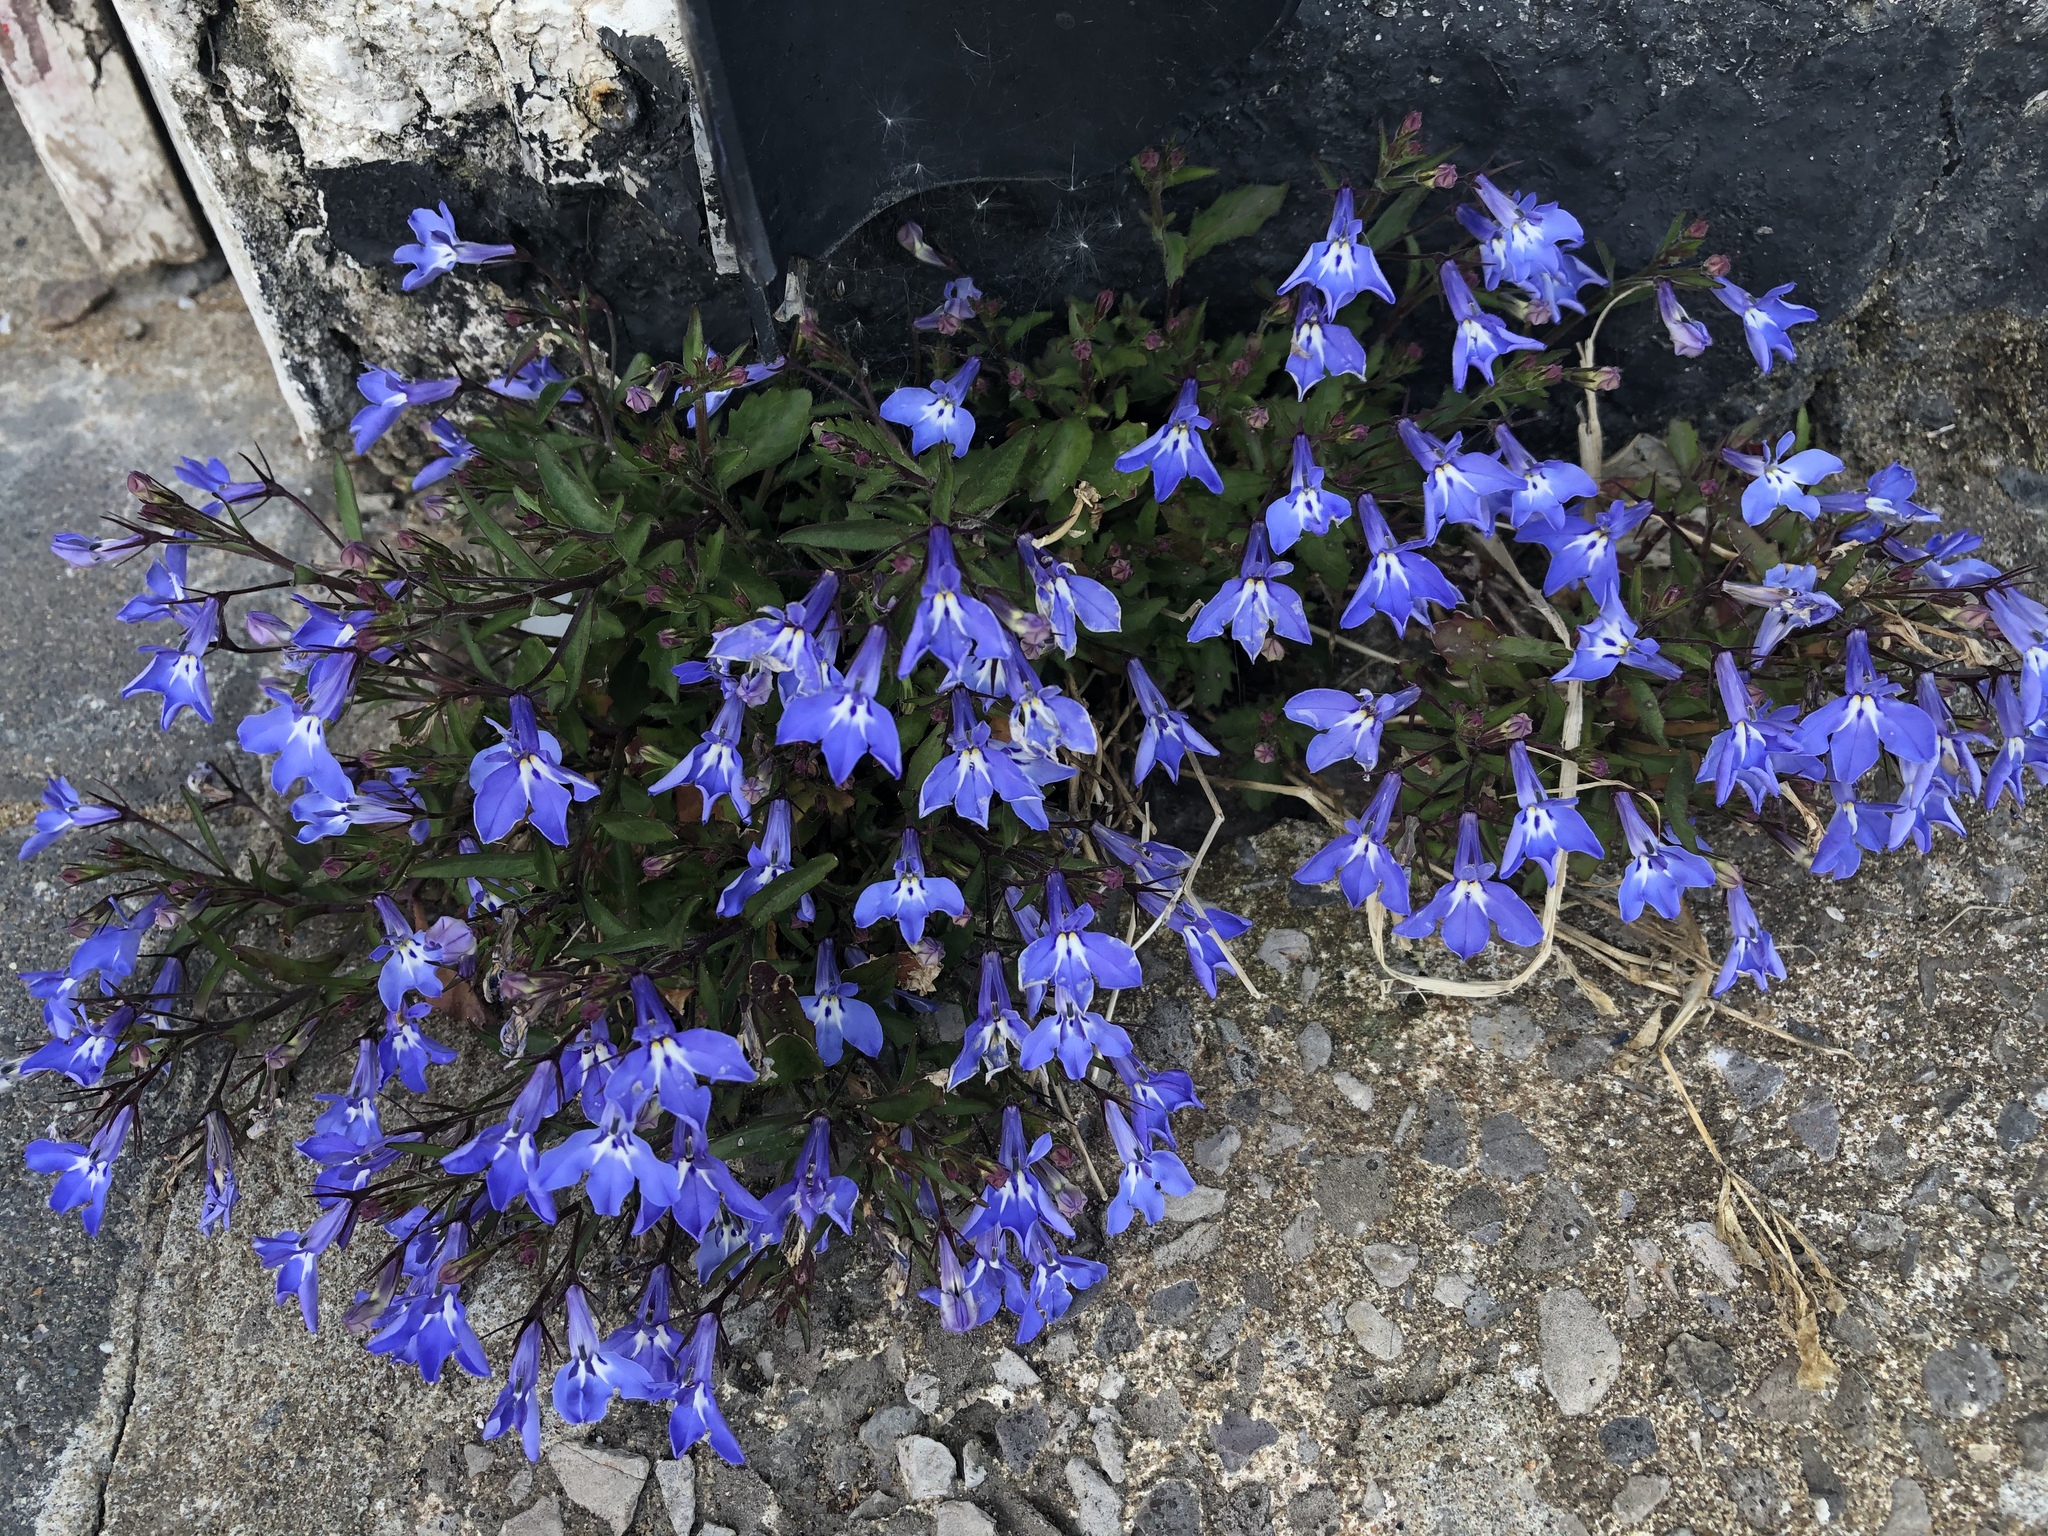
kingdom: Plantae
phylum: Tracheophyta
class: Magnoliopsida
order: Asterales
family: Campanulaceae
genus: Lobelia
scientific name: Lobelia erinus
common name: Edging lobelia
